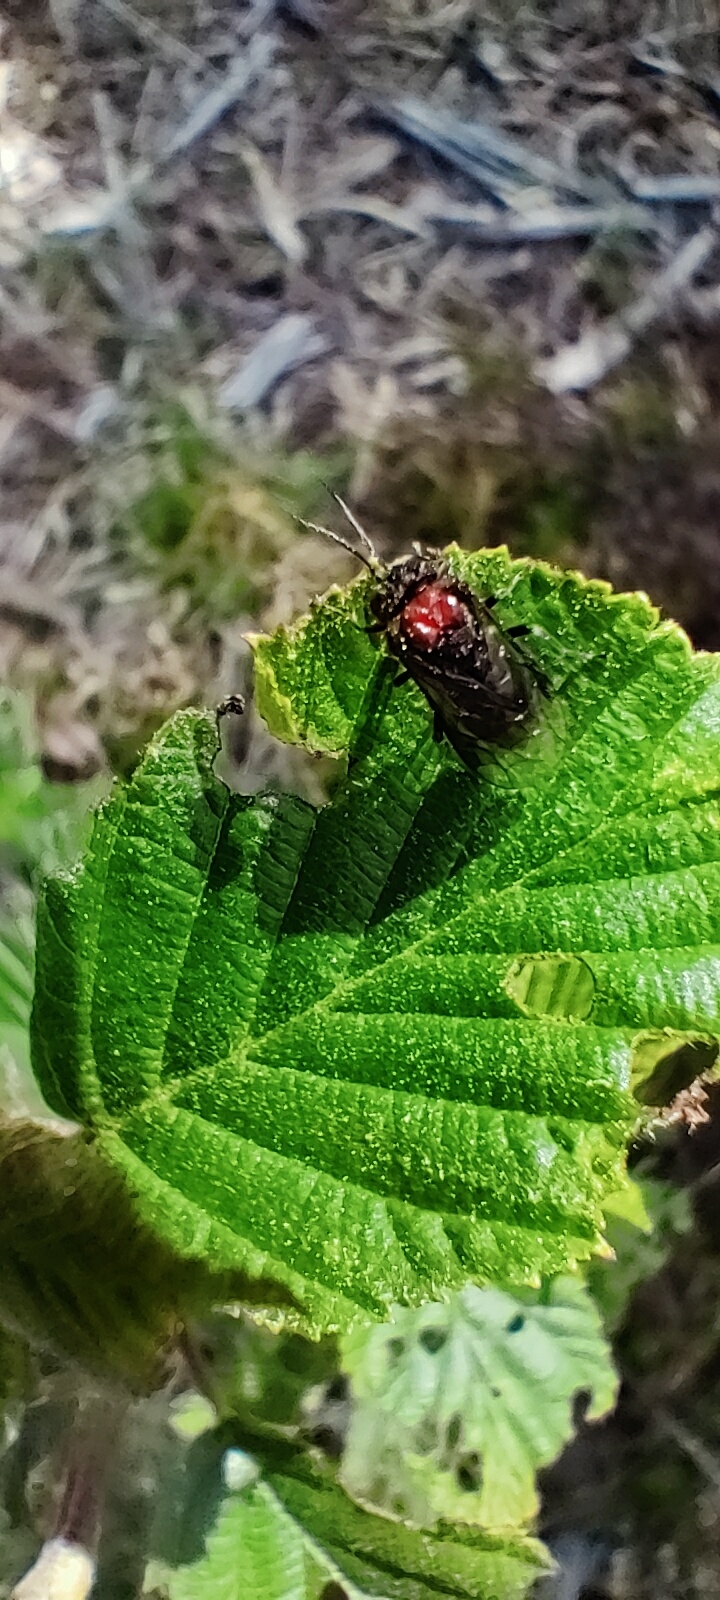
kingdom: Animalia
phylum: Arthropoda
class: Insecta
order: Hymenoptera
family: Tenthredinidae
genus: Eriocampa
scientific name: Eriocampa ovata
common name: Alder wooly sawfly
